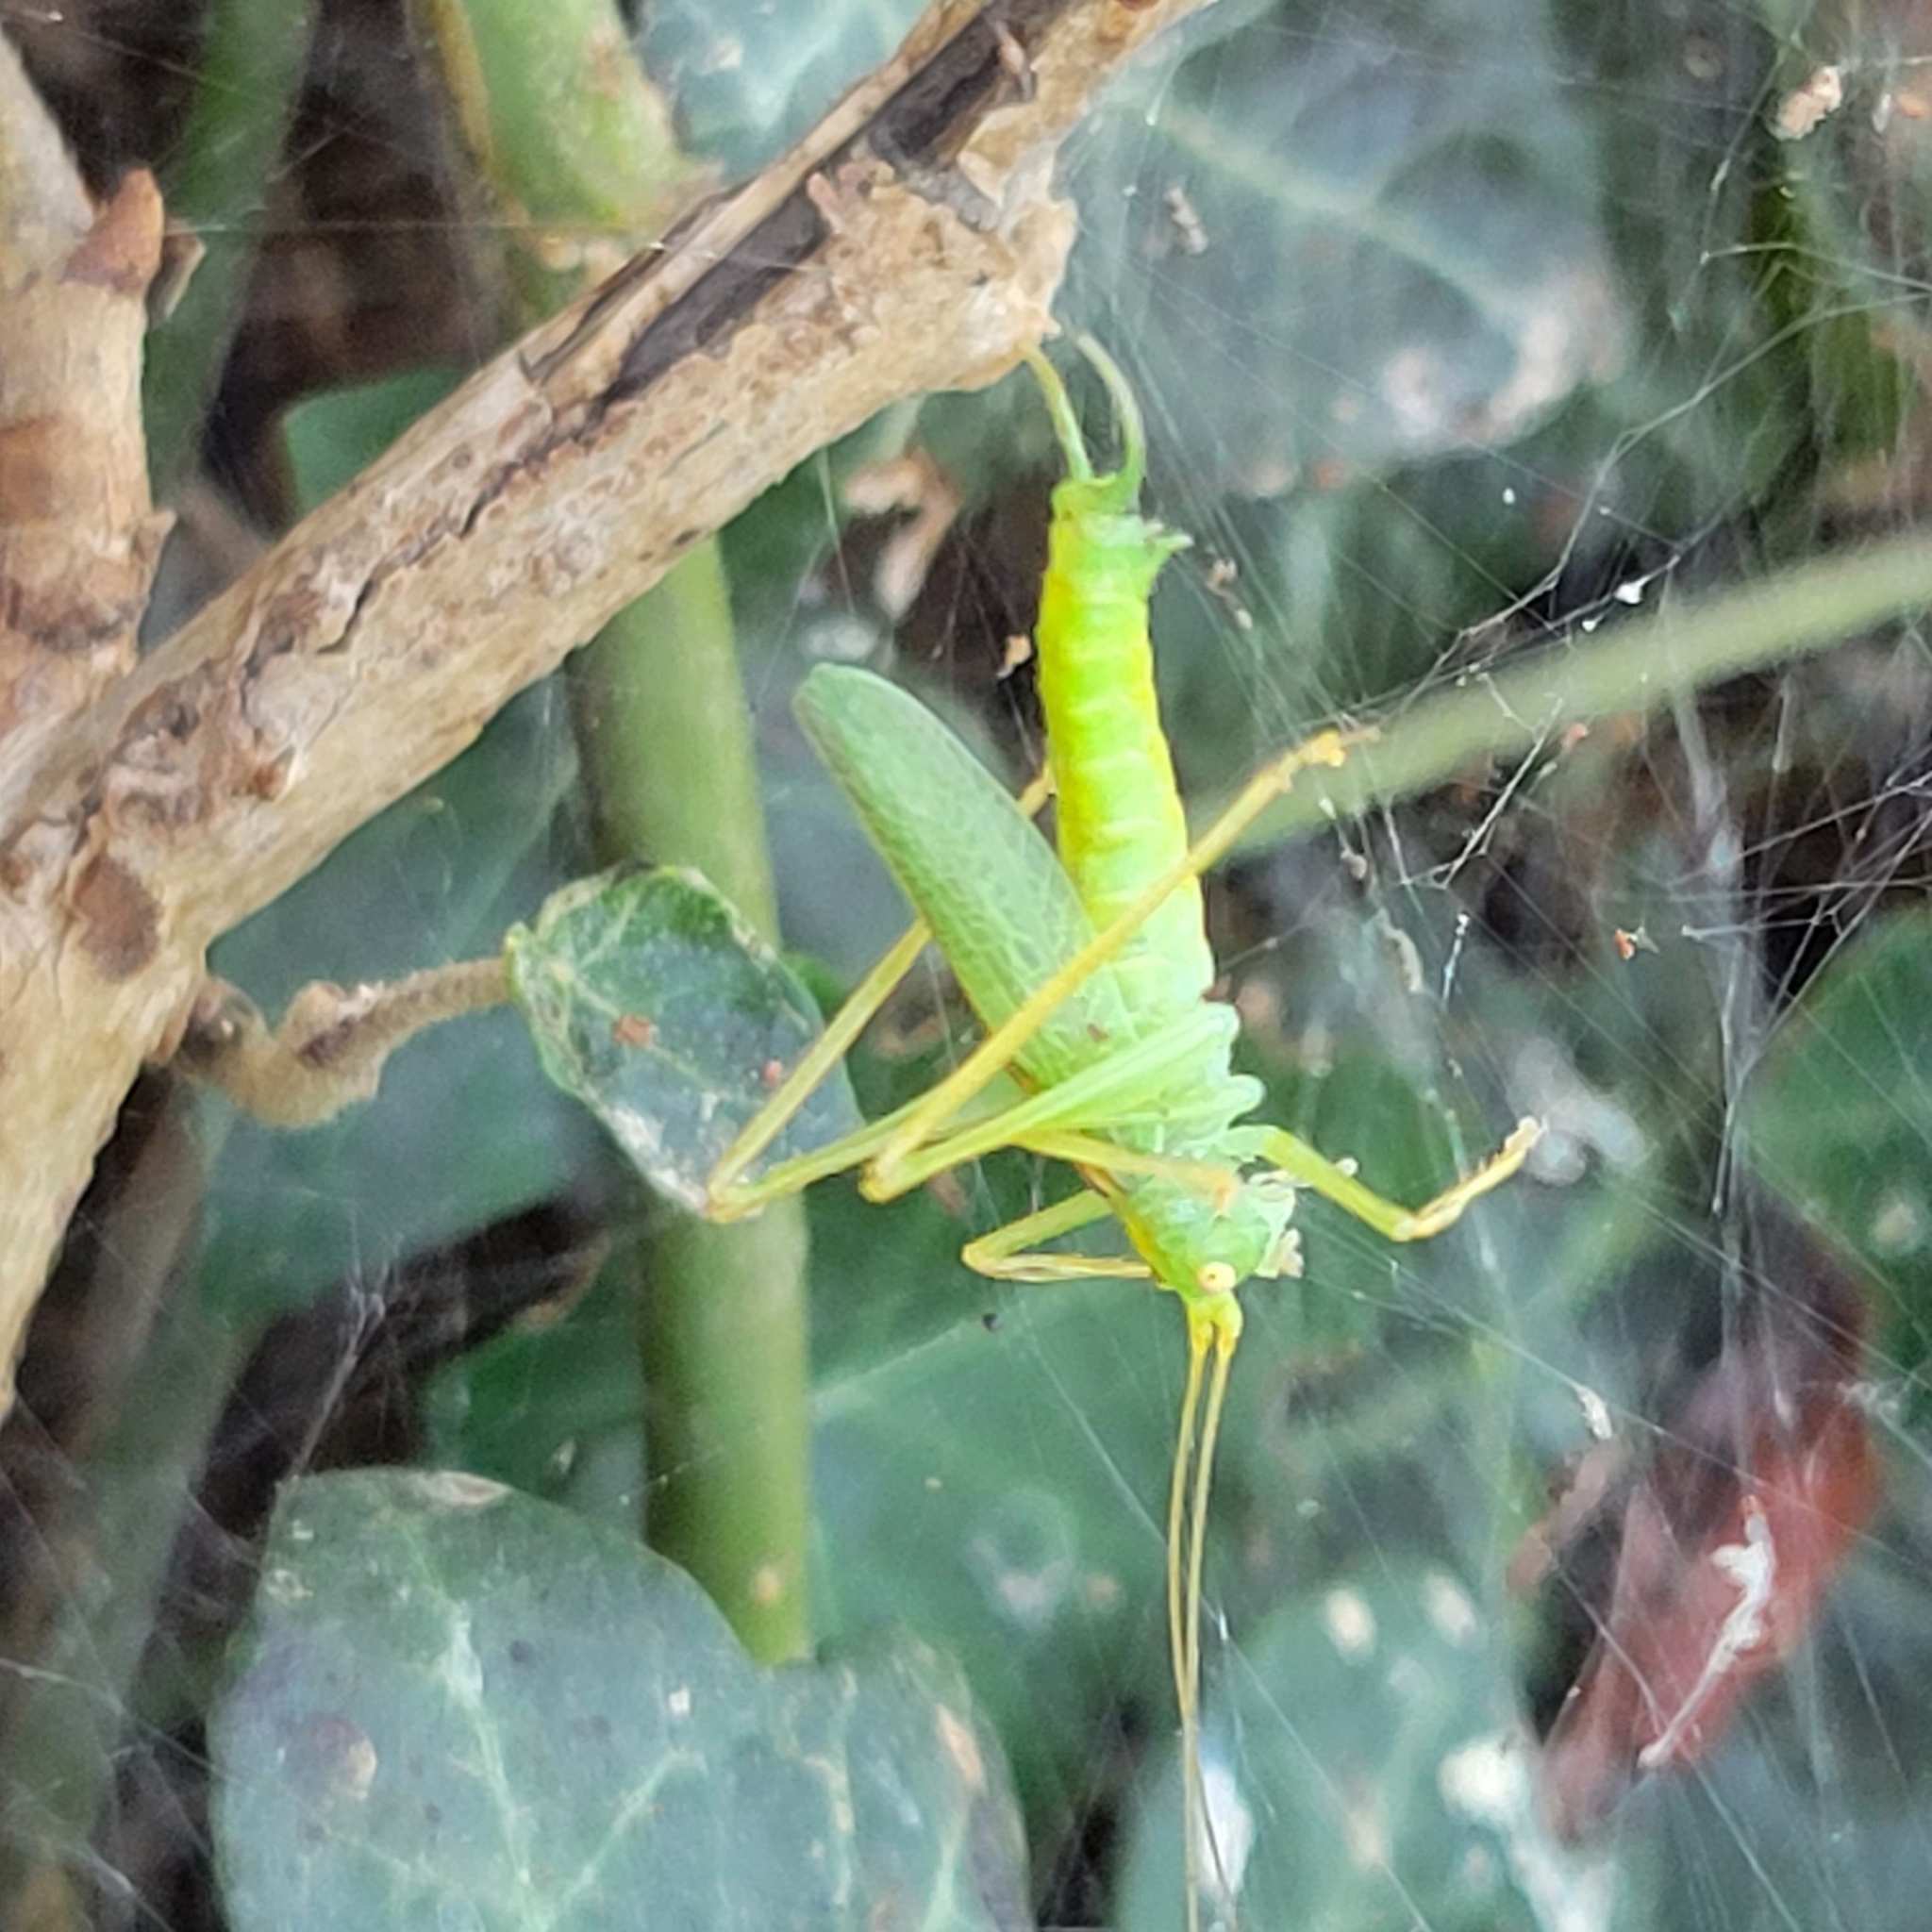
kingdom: Animalia
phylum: Arthropoda
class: Insecta
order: Orthoptera
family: Tettigoniidae
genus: Meconema
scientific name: Meconema thalassinum
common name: Oak bush-cricket
